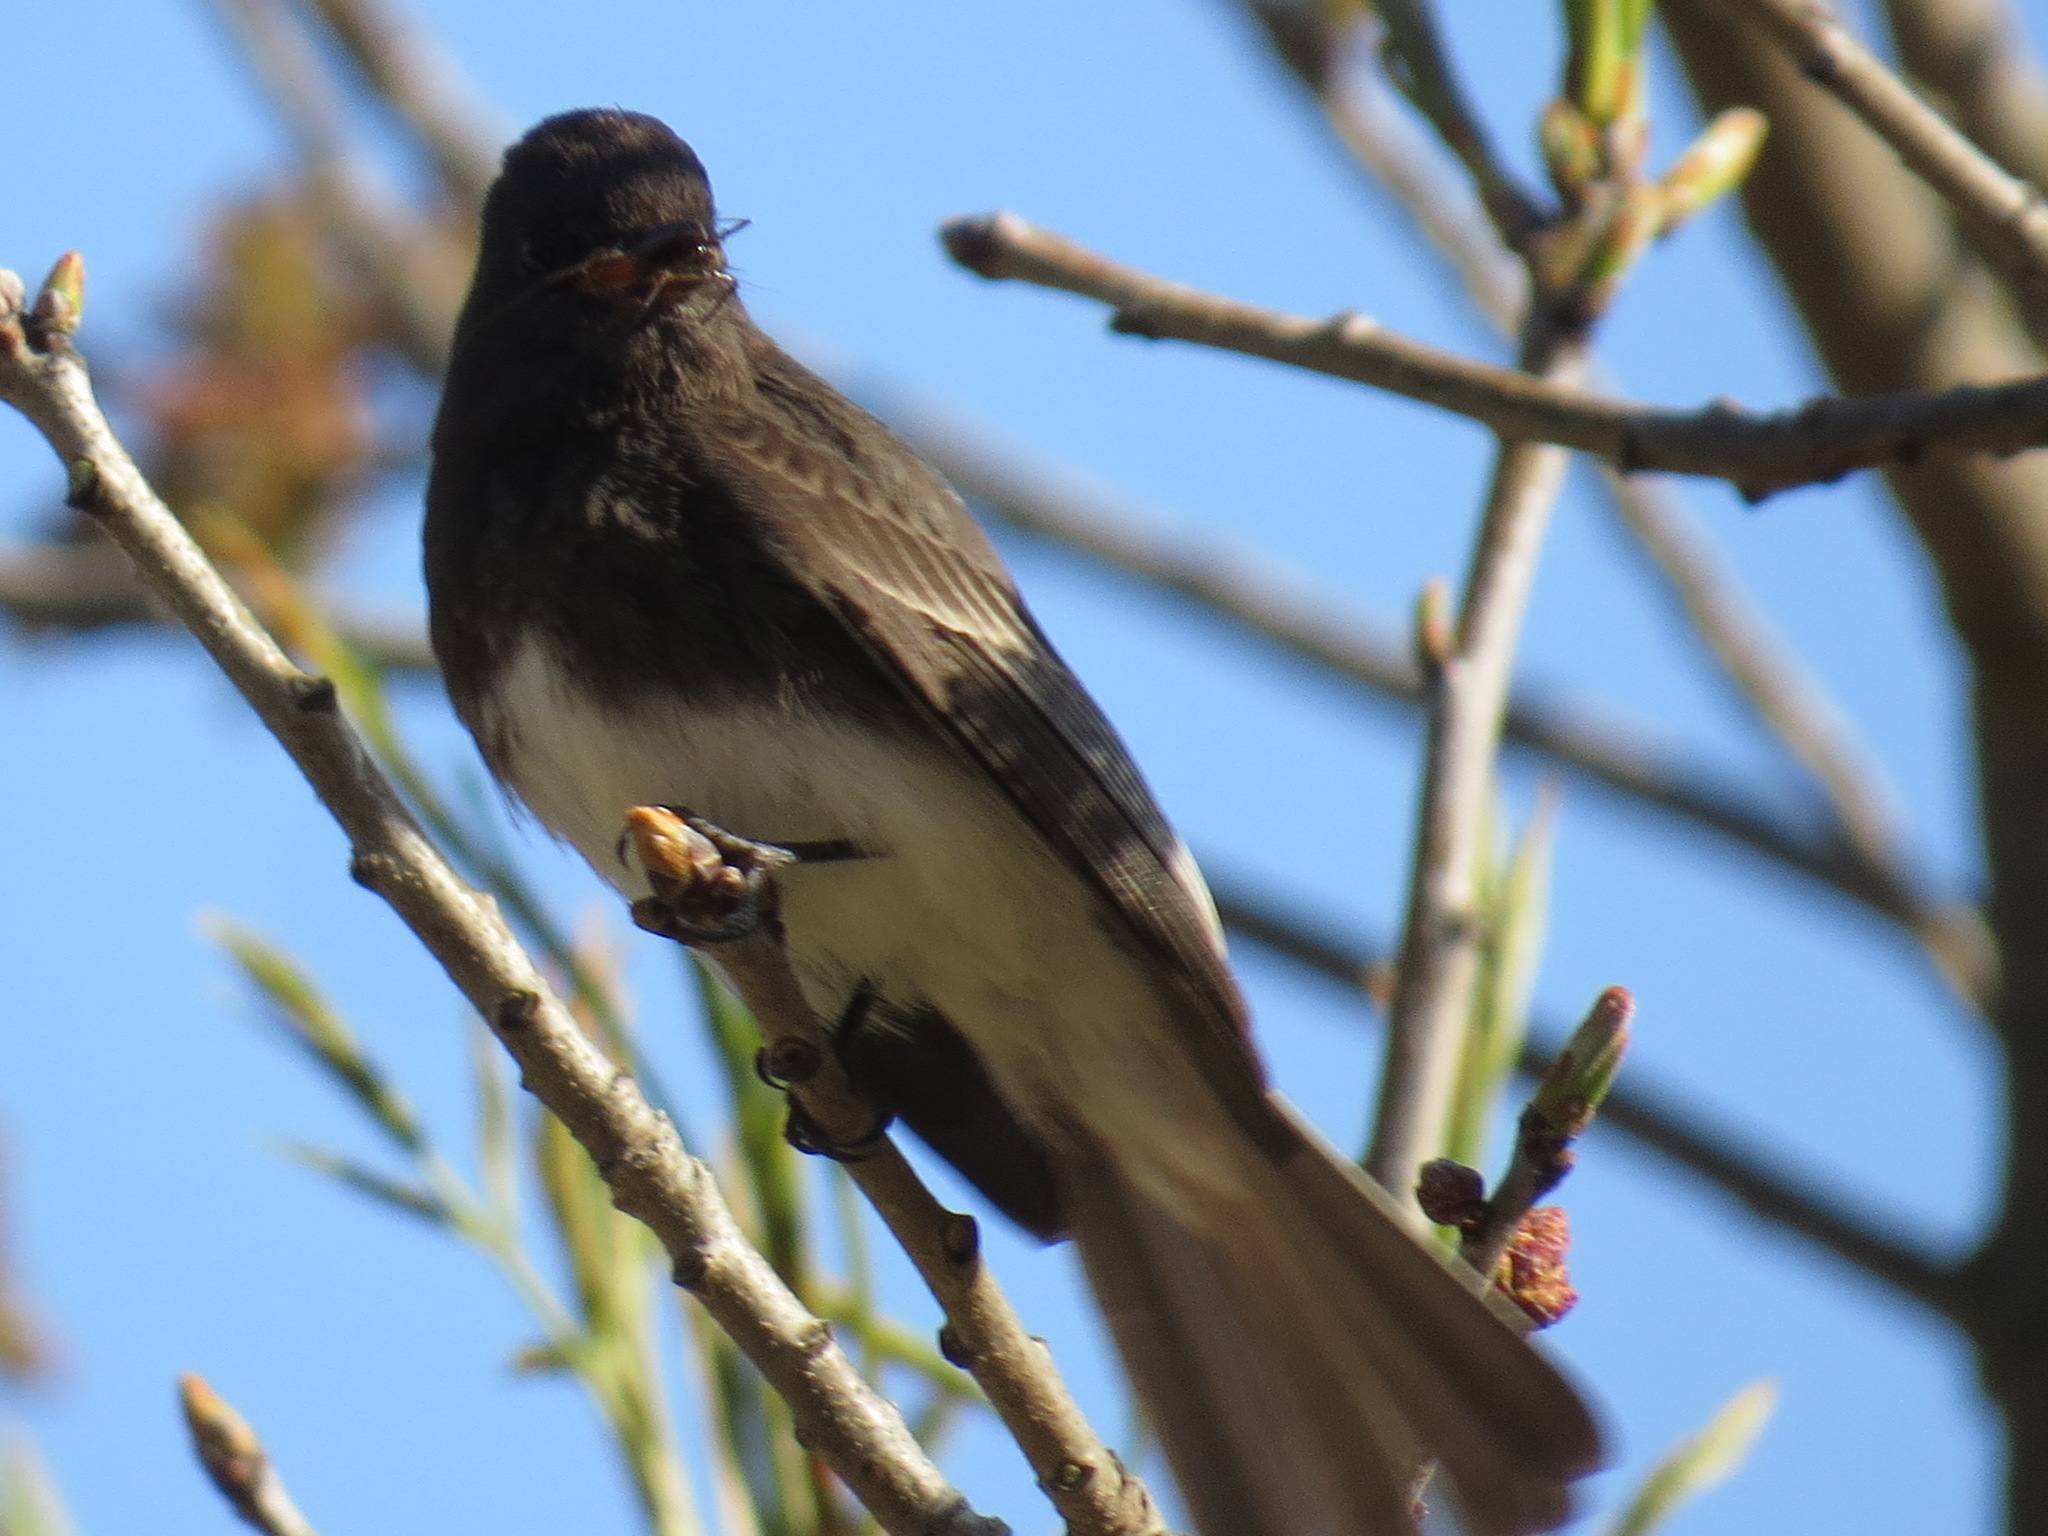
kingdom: Animalia
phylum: Chordata
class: Aves
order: Passeriformes
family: Tyrannidae
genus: Sayornis
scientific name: Sayornis nigricans
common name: Black phoebe
